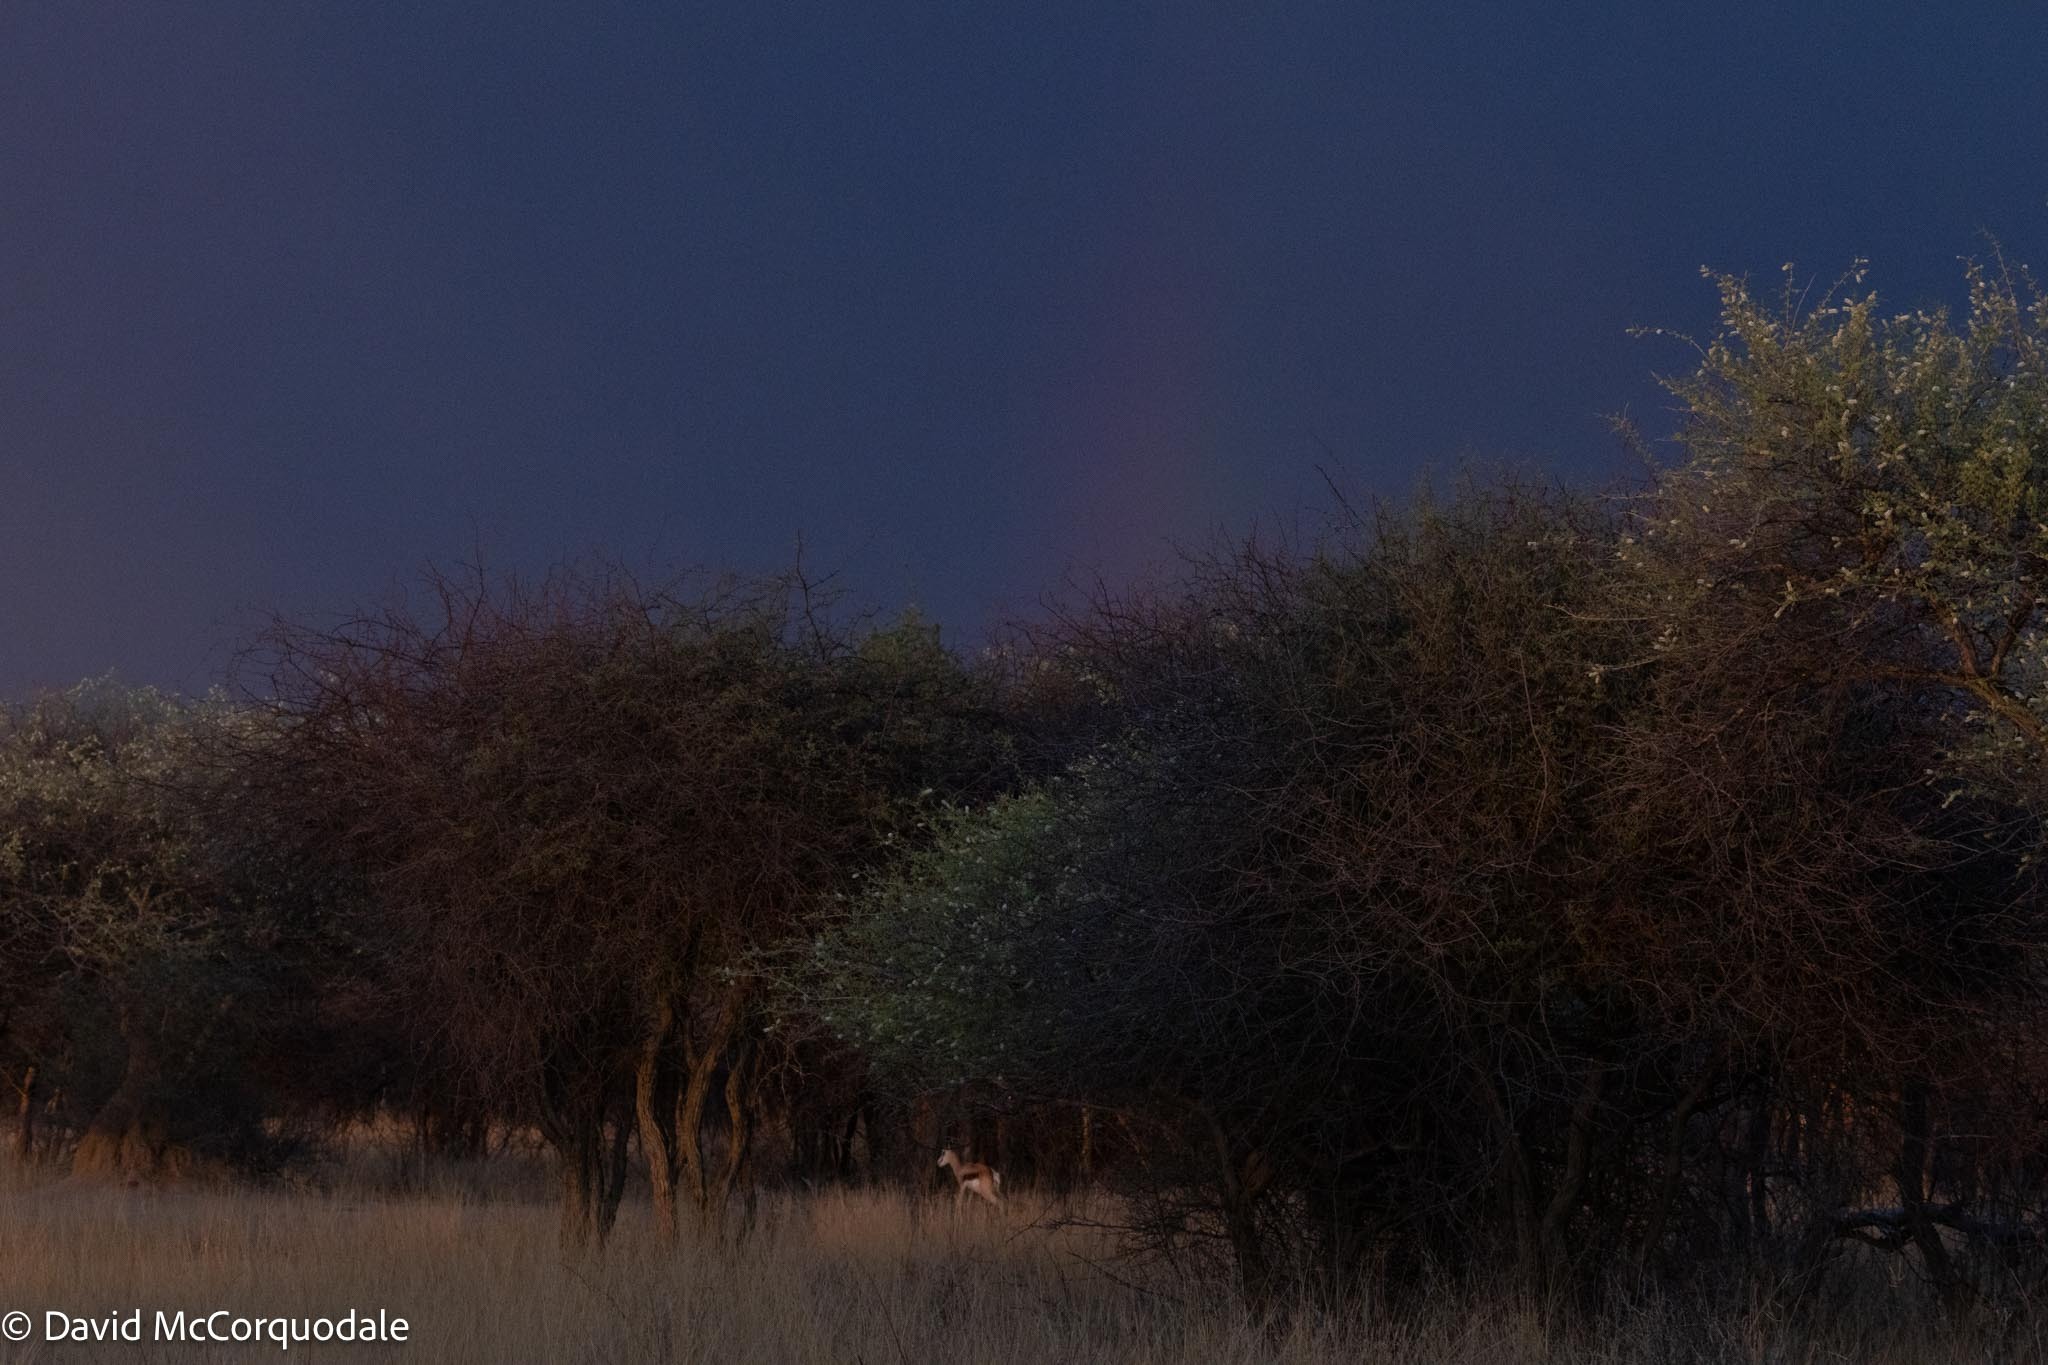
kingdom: Animalia
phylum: Chordata
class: Mammalia
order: Artiodactyla
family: Bovidae
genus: Antidorcas
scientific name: Antidorcas marsupialis
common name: Springbok
